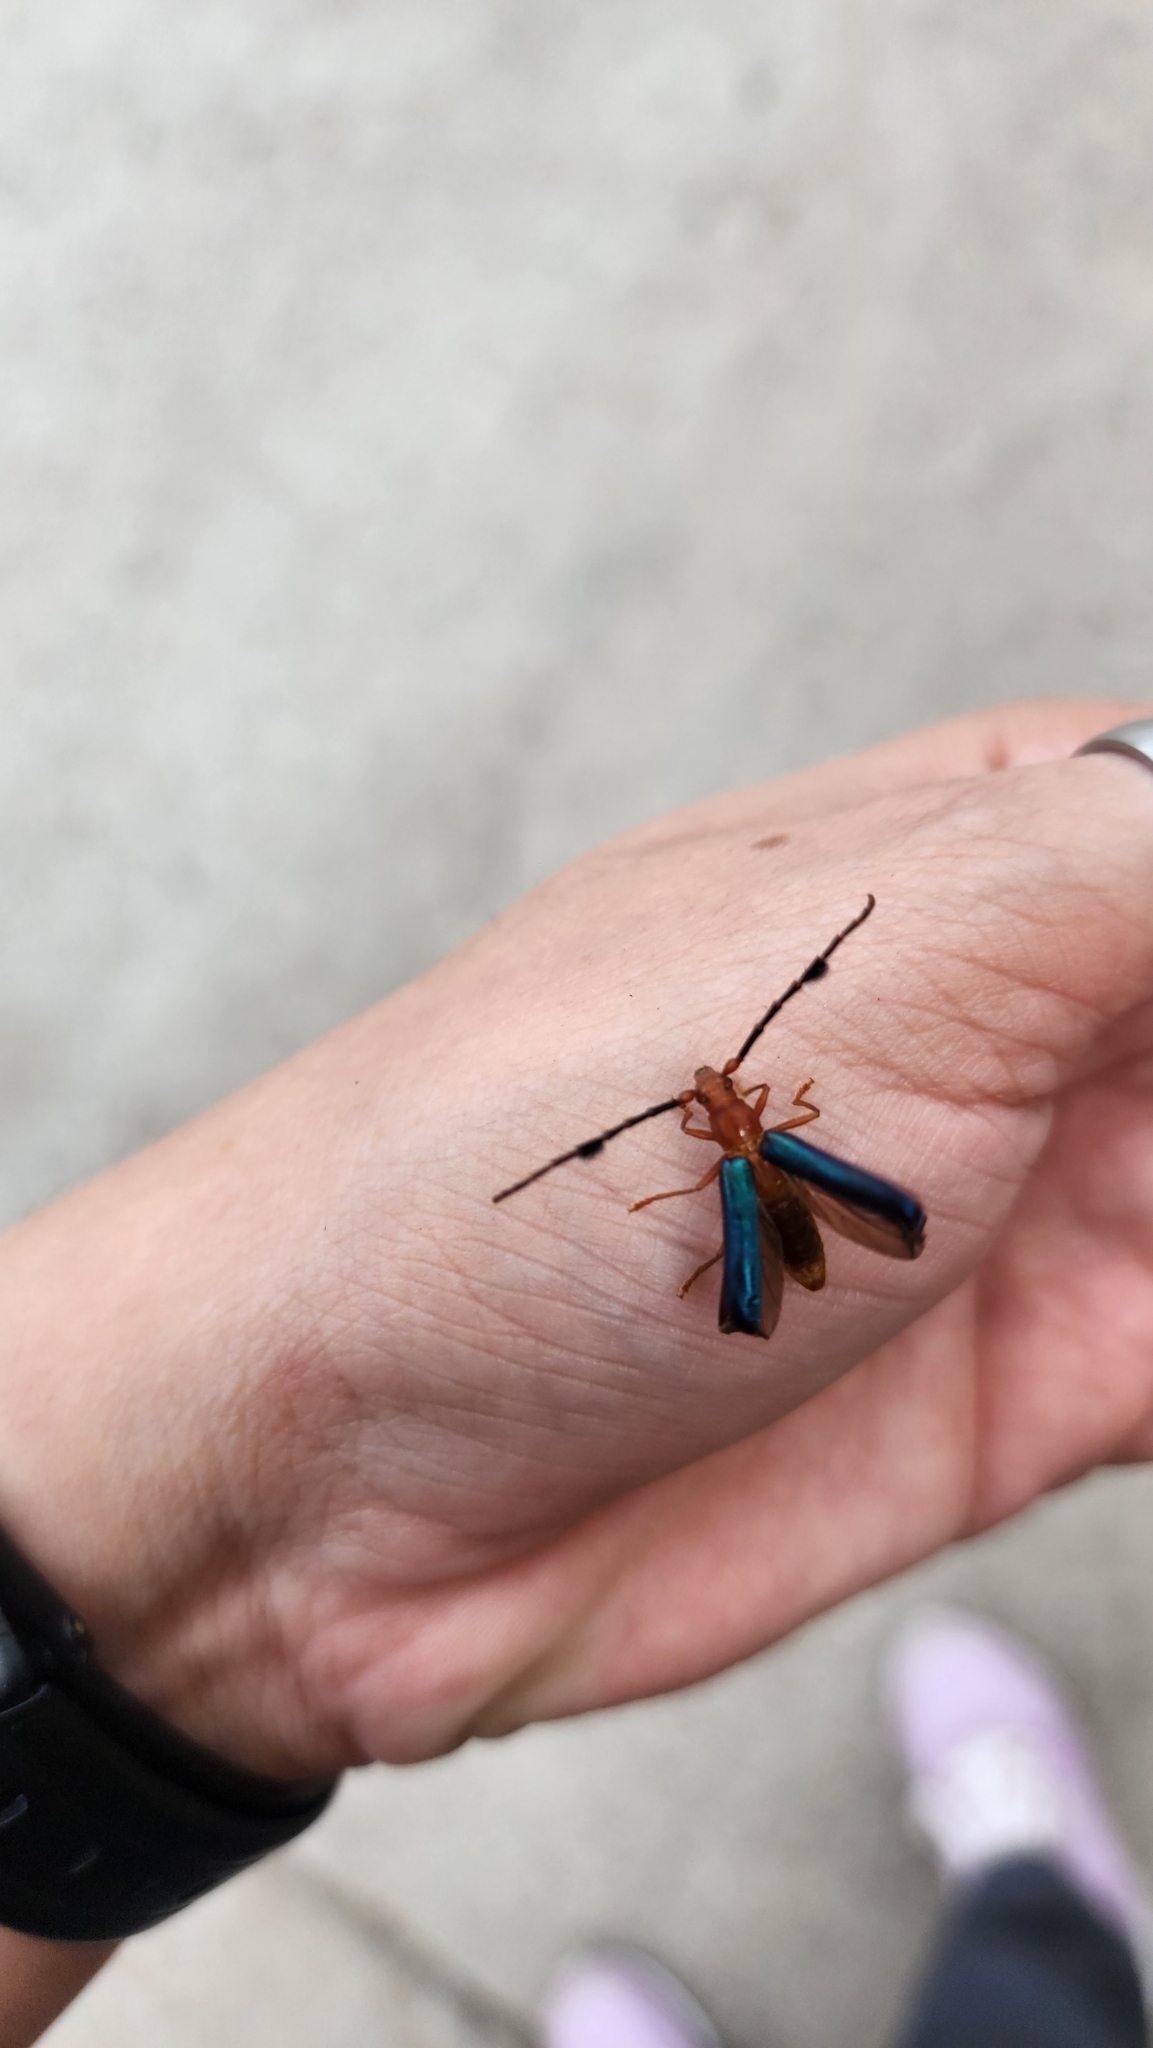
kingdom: Animalia
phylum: Arthropoda
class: Insecta
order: Coleoptera
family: Cerambycidae
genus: Compsocerus
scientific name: Compsocerus parviscopus
